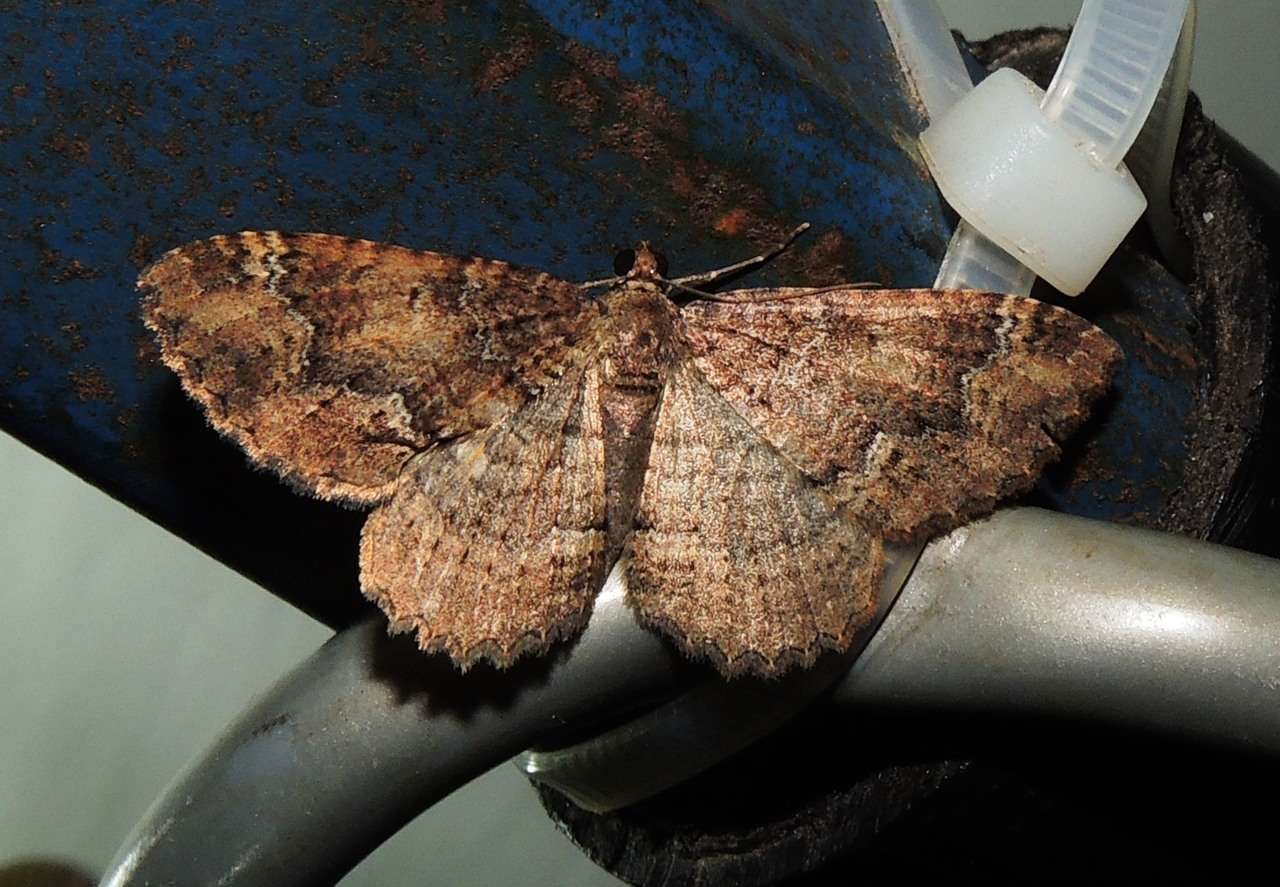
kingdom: Animalia
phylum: Arthropoda
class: Insecta
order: Lepidoptera
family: Geometridae
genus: Visiana
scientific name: Visiana brujata
